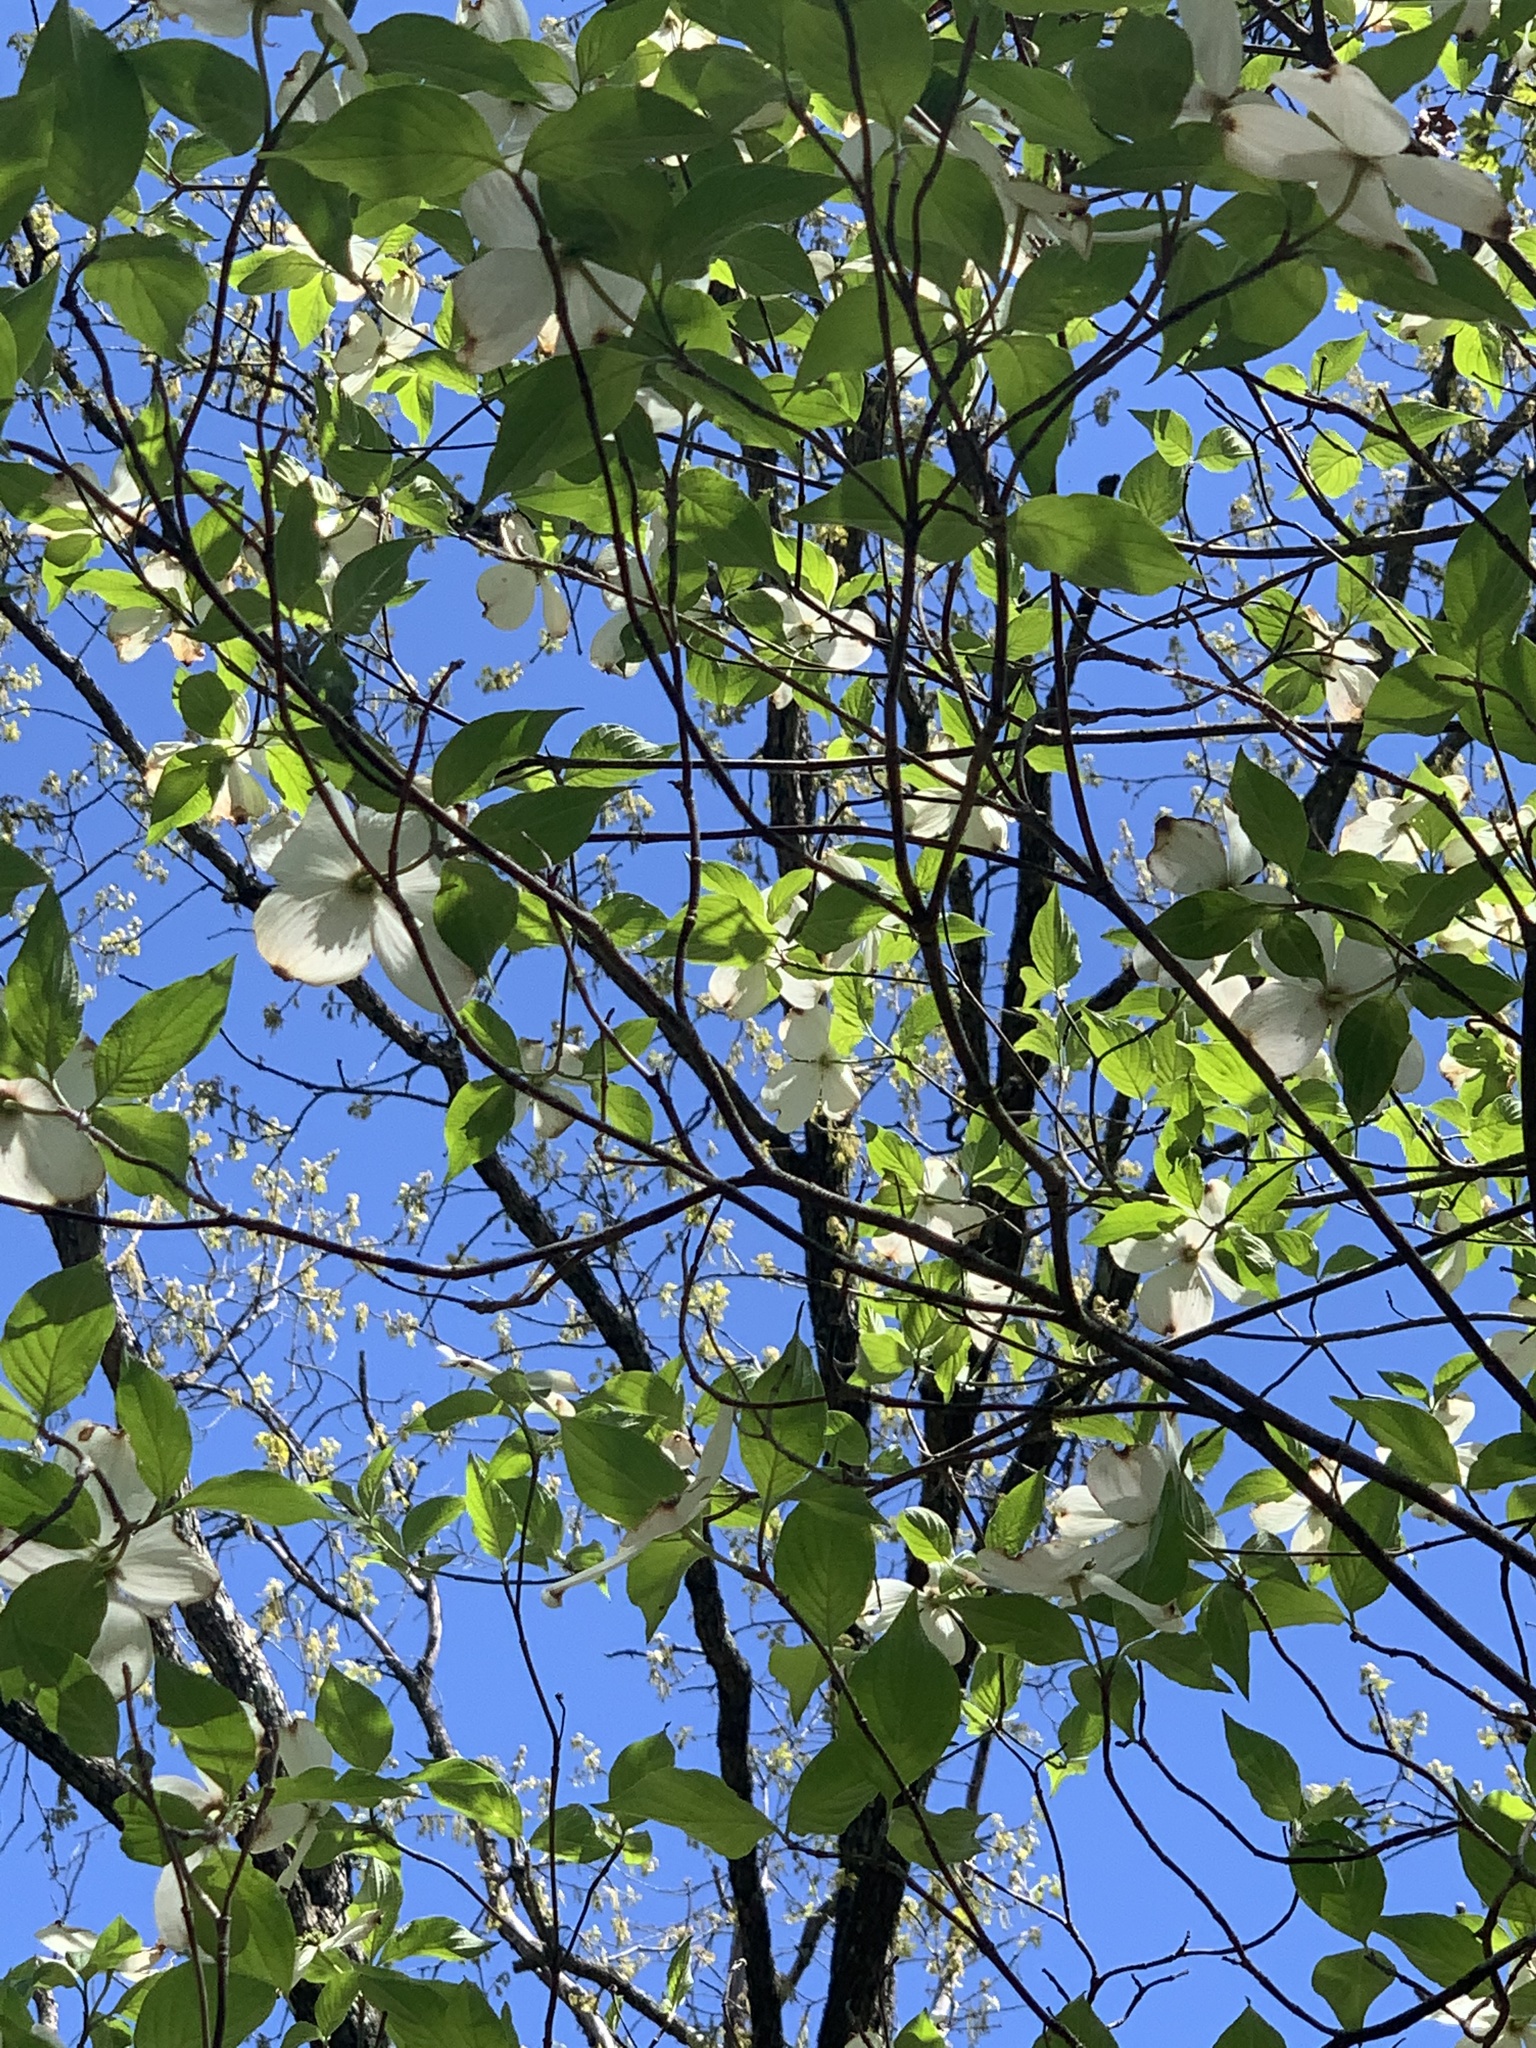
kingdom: Plantae
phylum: Tracheophyta
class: Magnoliopsida
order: Cornales
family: Cornaceae
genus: Cornus
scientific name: Cornus florida
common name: Flowering dogwood
